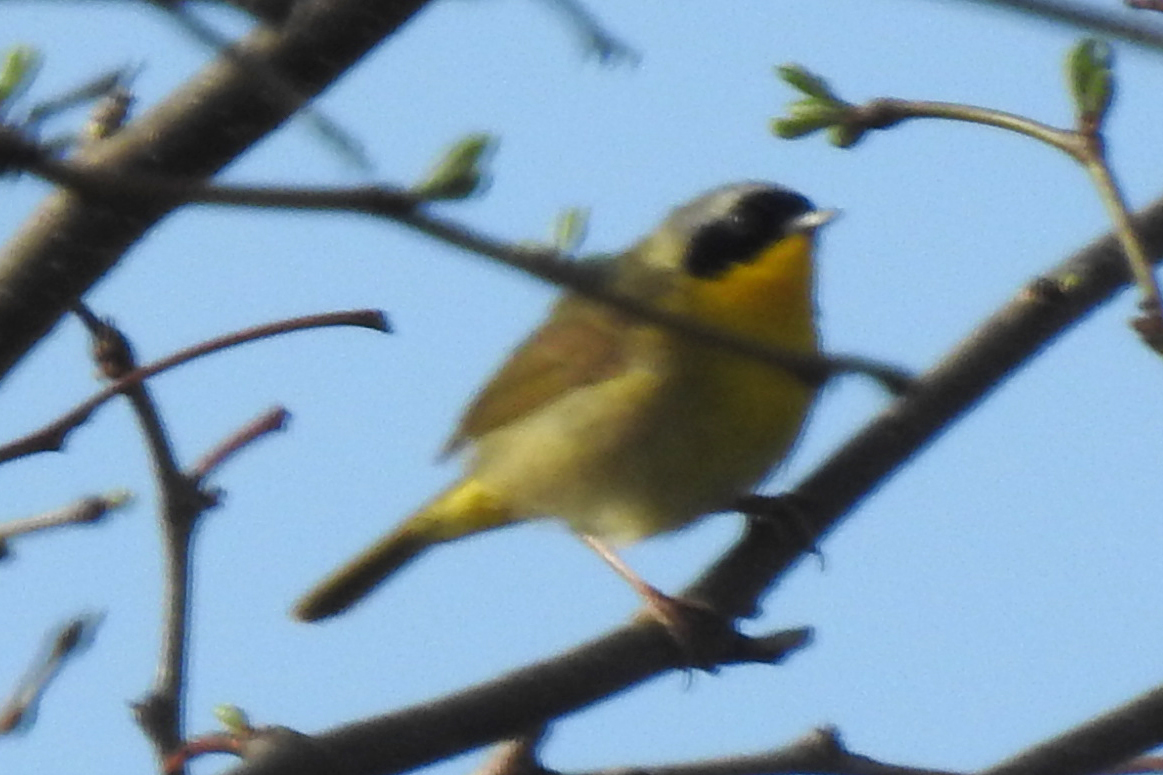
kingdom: Animalia
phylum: Chordata
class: Aves
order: Passeriformes
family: Parulidae
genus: Geothlypis
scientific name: Geothlypis trichas
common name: Common yellowthroat
